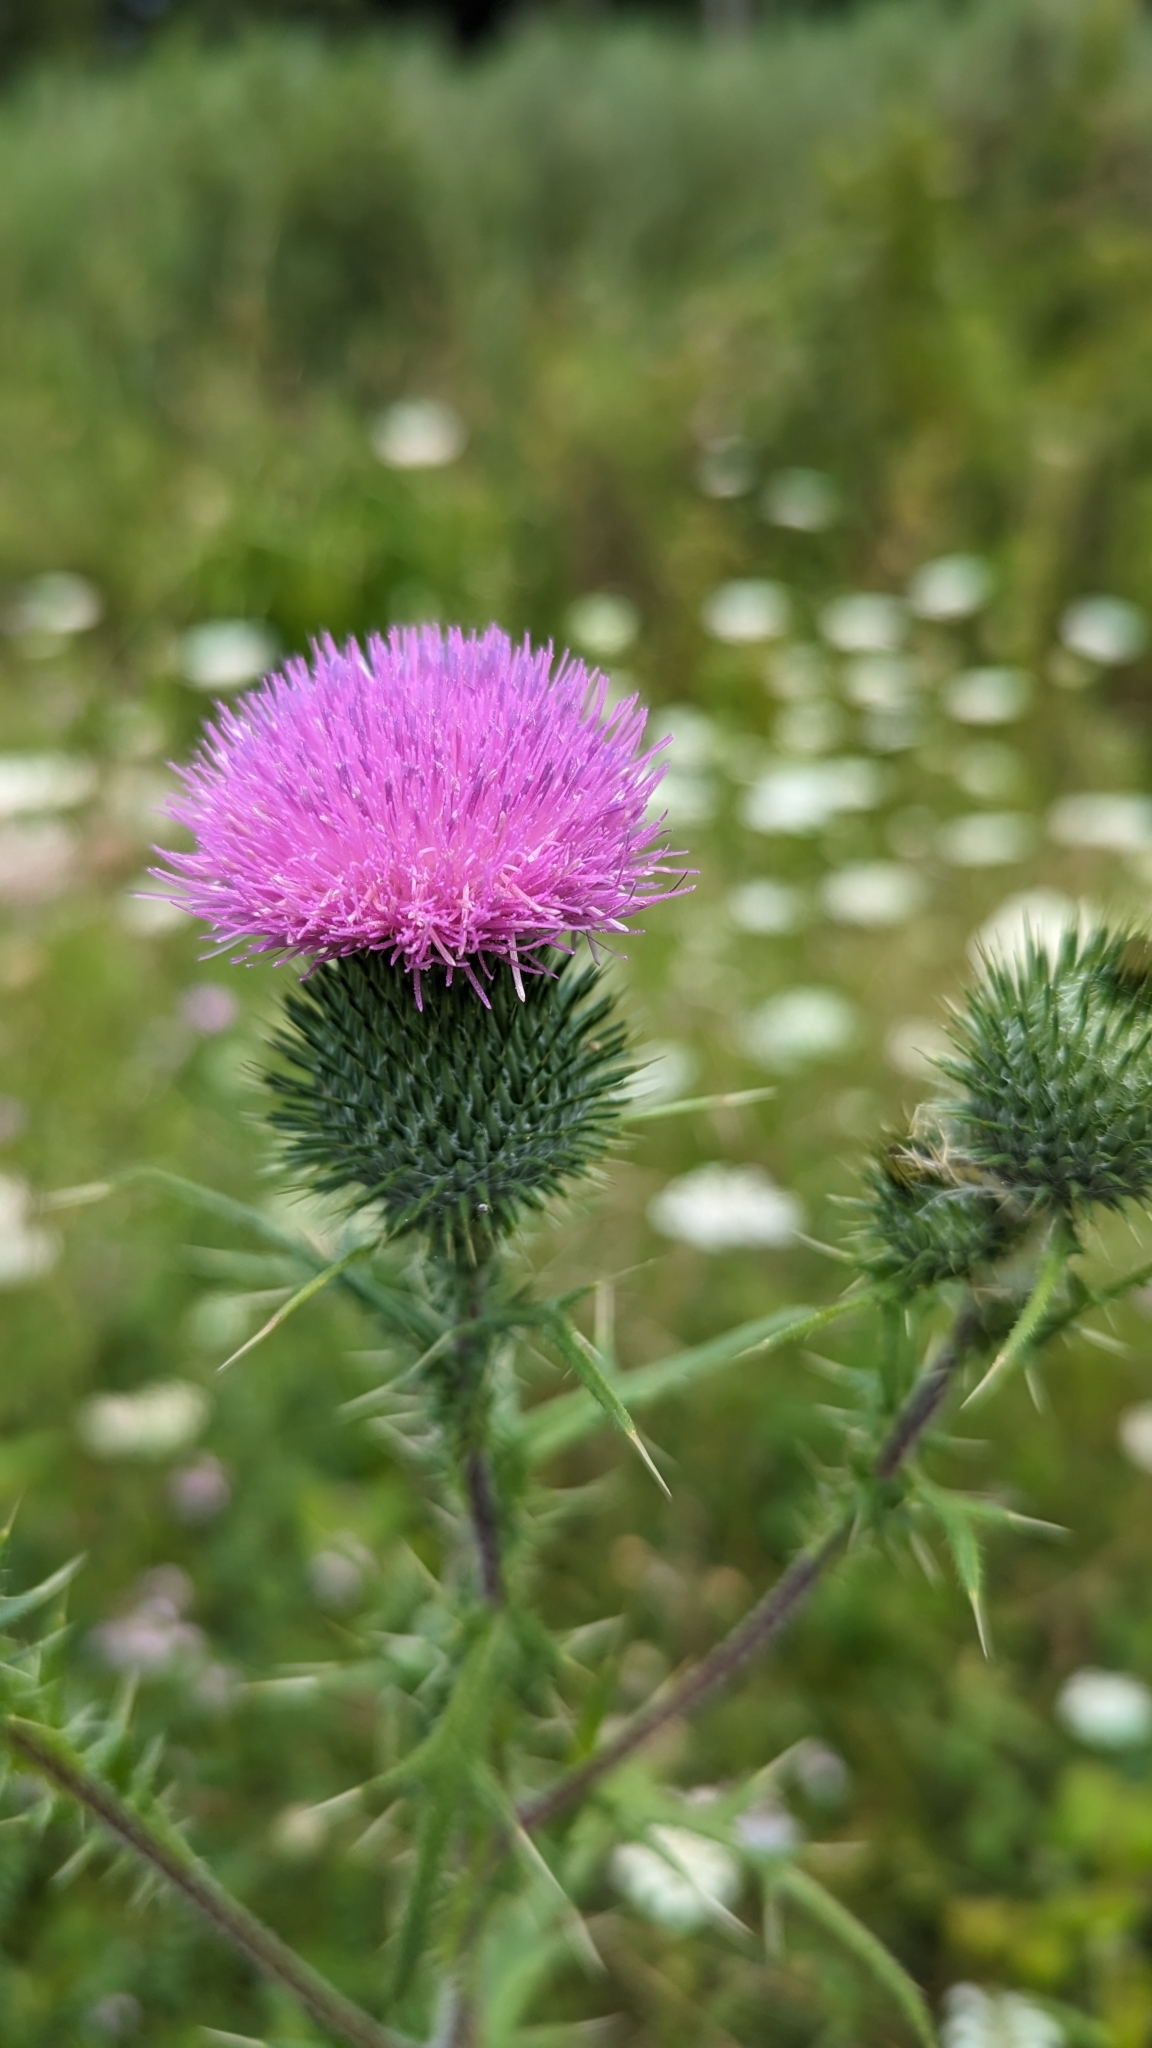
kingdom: Plantae
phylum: Tracheophyta
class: Magnoliopsida
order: Asterales
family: Asteraceae
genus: Cirsium
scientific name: Cirsium vulgare
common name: Bull thistle
